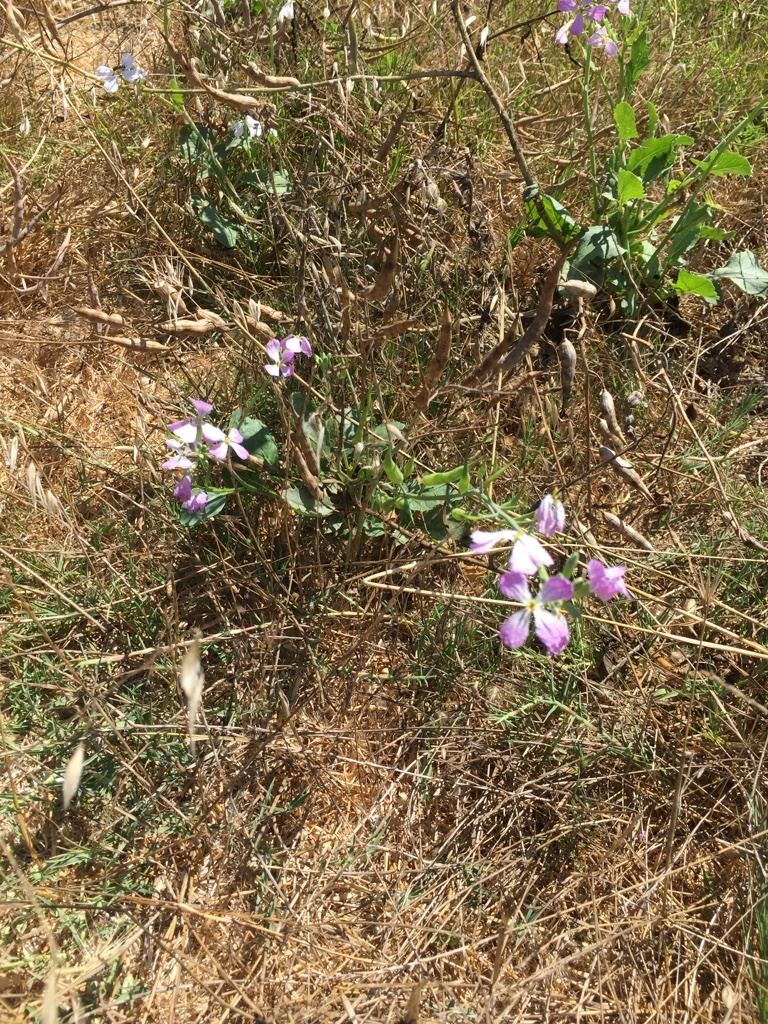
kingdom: Plantae
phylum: Tracheophyta
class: Magnoliopsida
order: Brassicales
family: Brassicaceae
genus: Raphanus
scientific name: Raphanus sativus
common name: Cultivated radish
